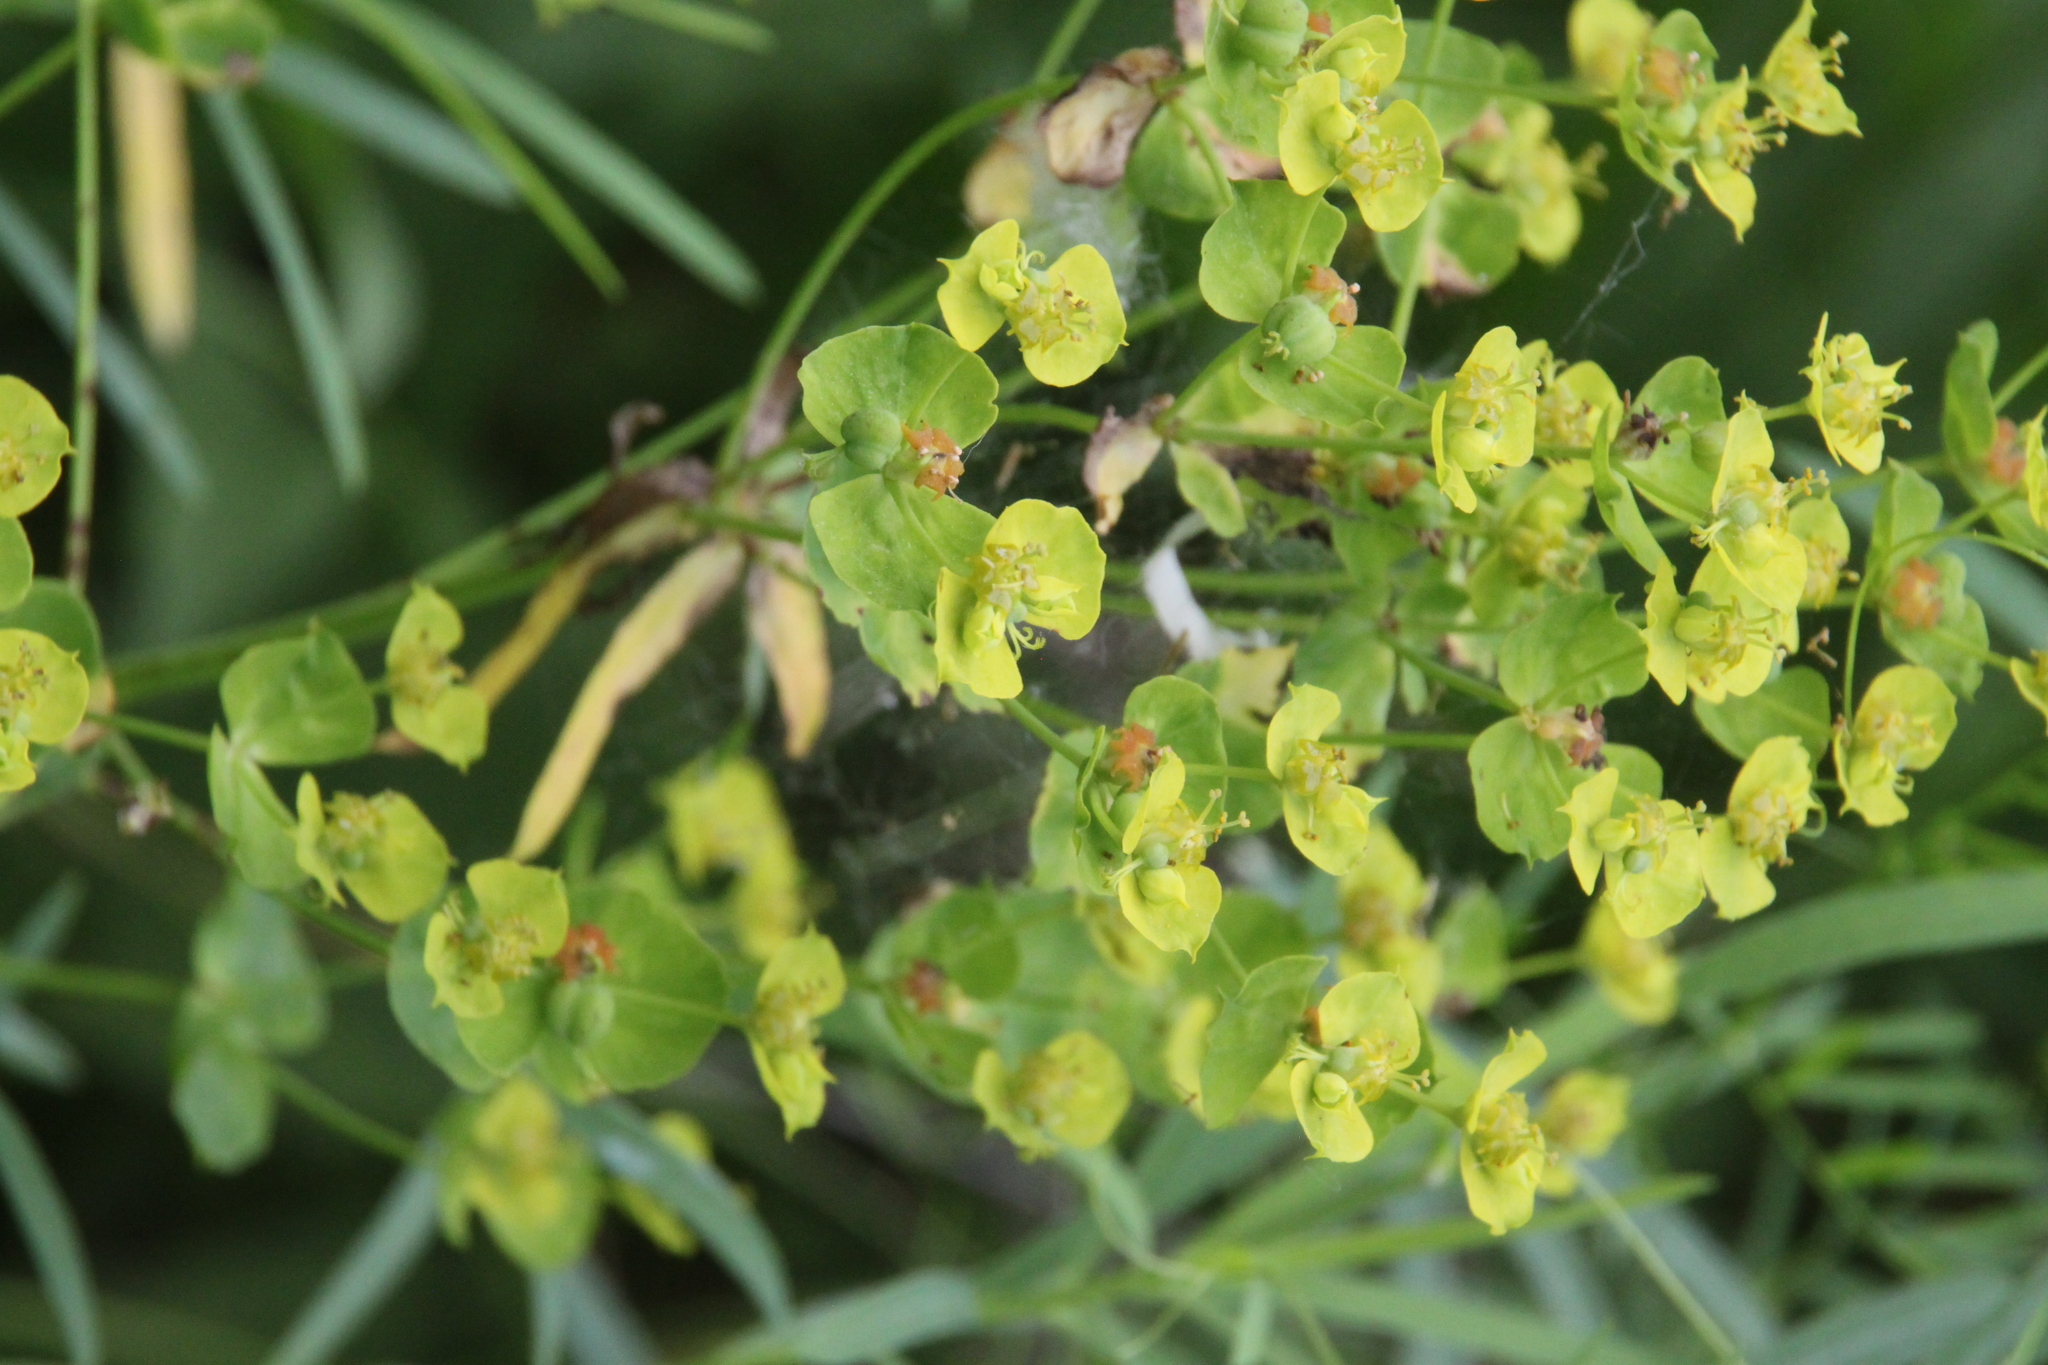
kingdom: Plantae
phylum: Tracheophyta
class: Magnoliopsida
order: Malpighiales
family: Euphorbiaceae
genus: Euphorbia
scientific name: Euphorbia virgata
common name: Leafy spurge
